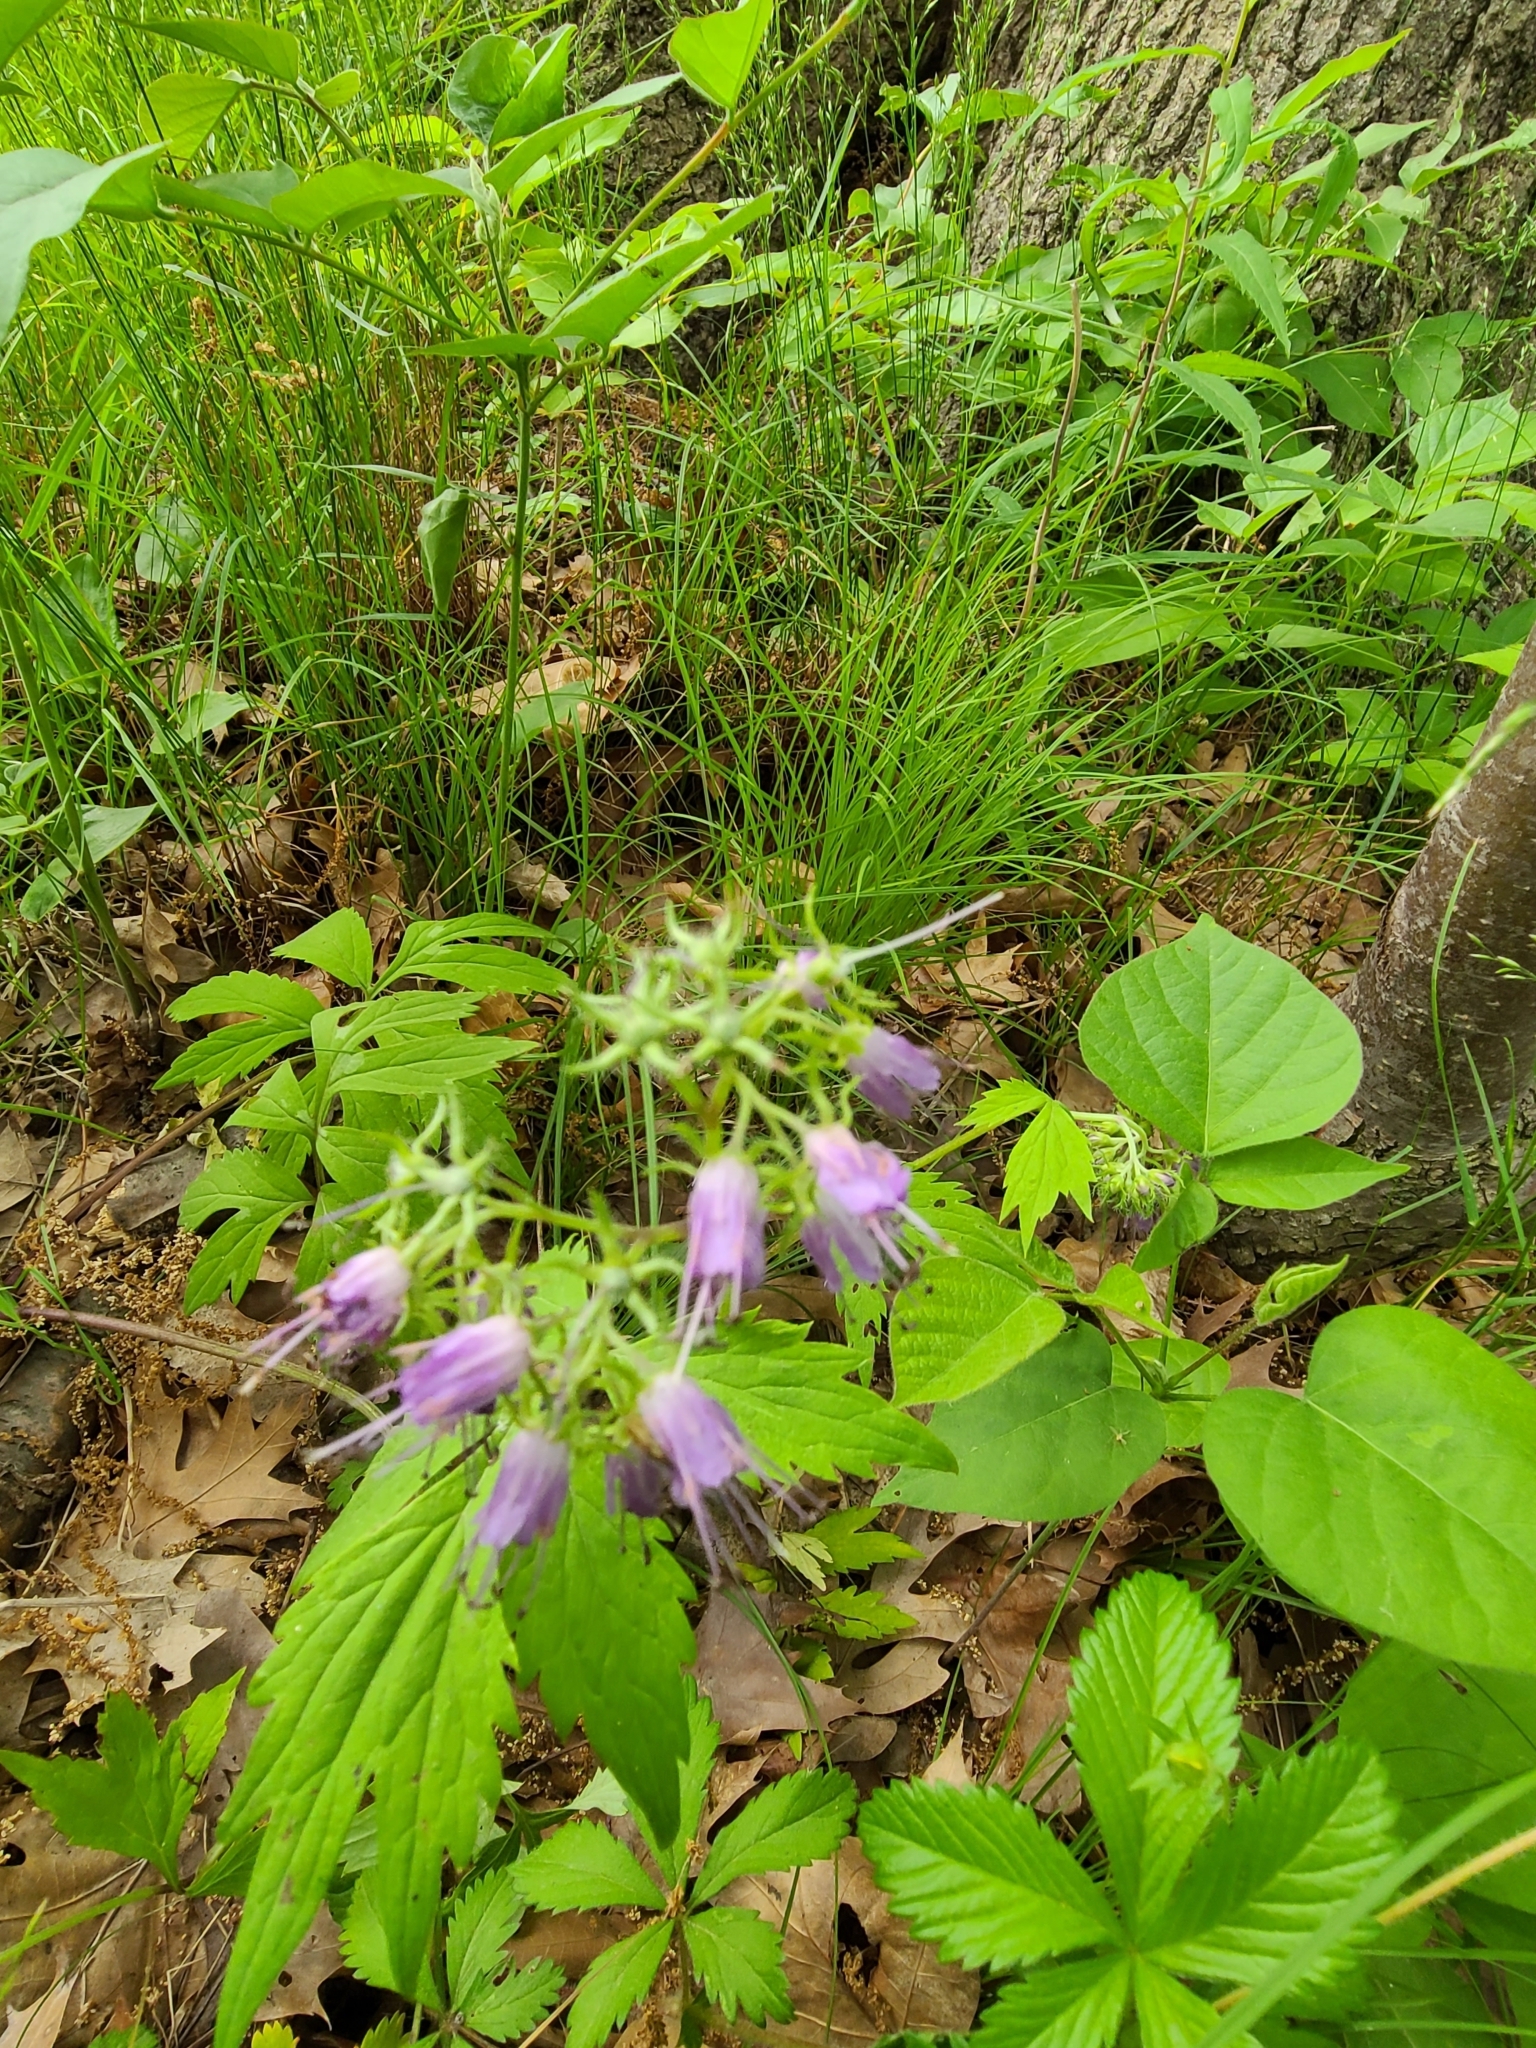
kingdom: Plantae
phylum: Tracheophyta
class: Magnoliopsida
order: Boraginales
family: Hydrophyllaceae
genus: Hydrophyllum
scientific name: Hydrophyllum virginianum
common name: Virginia waterleaf
